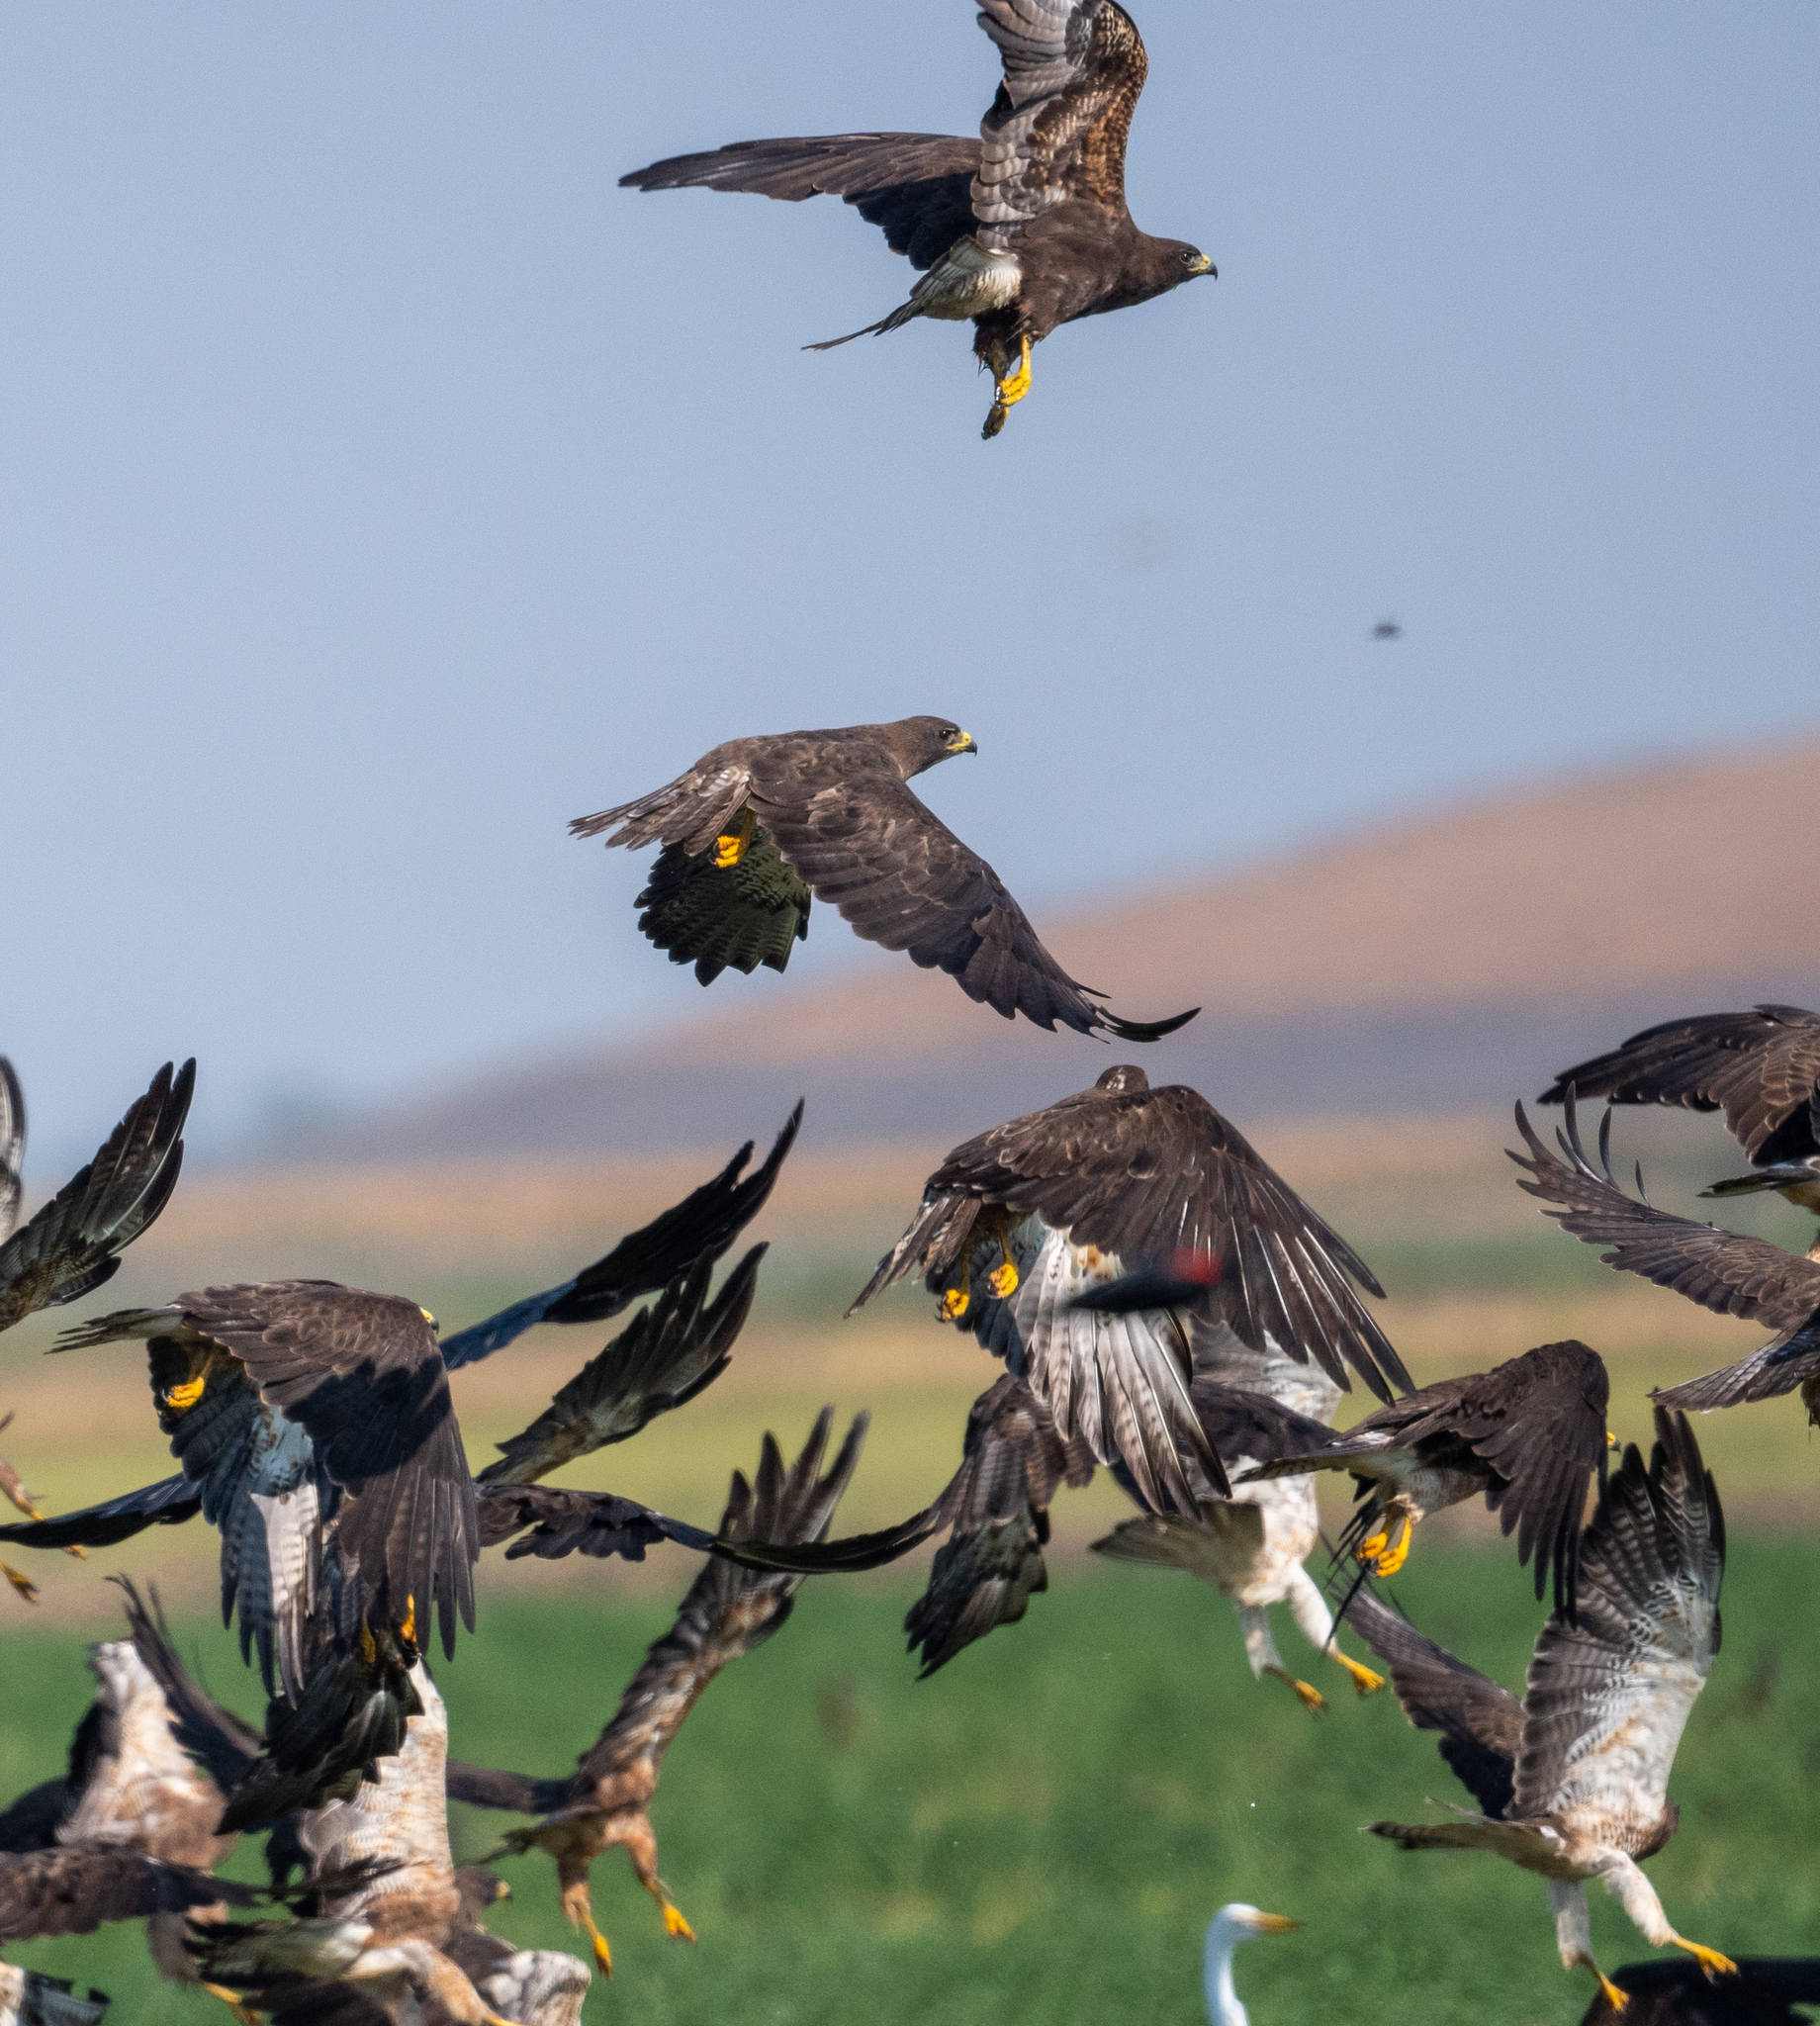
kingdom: Animalia
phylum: Chordata
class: Aves
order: Accipitriformes
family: Accipitridae
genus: Buteo
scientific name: Buteo swainsoni
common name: Swainson's hawk
